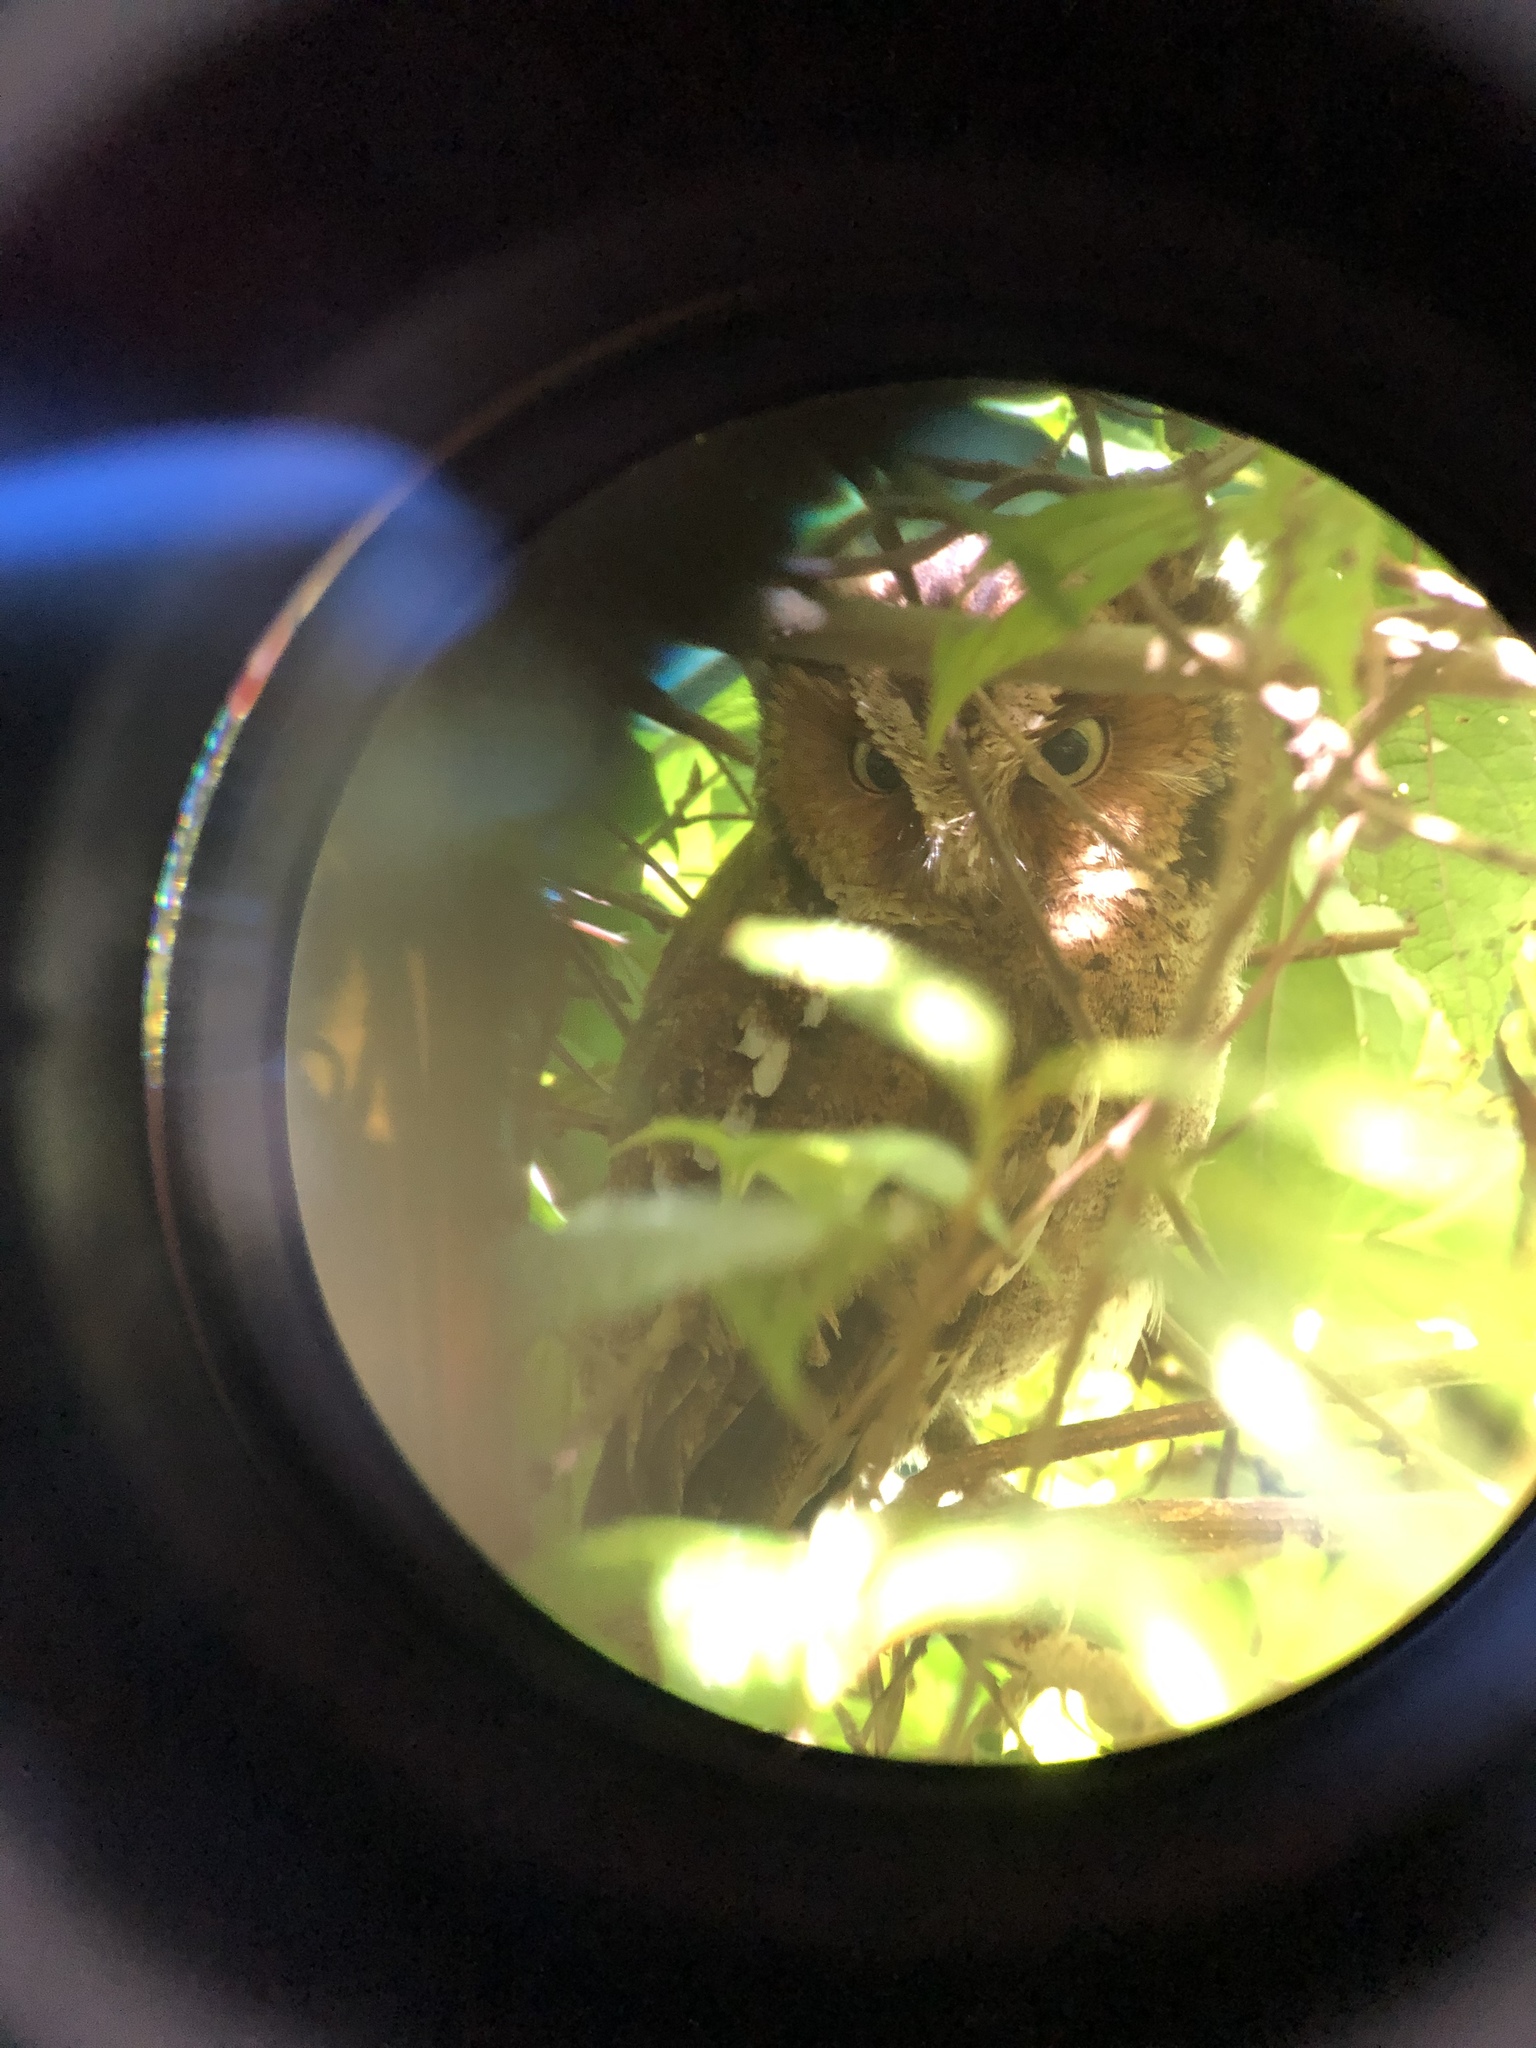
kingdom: Animalia
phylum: Chordata
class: Aves
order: Strigiformes
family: Strigidae
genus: Otus
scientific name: Otus spilocephalus
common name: Mountain scops owl
